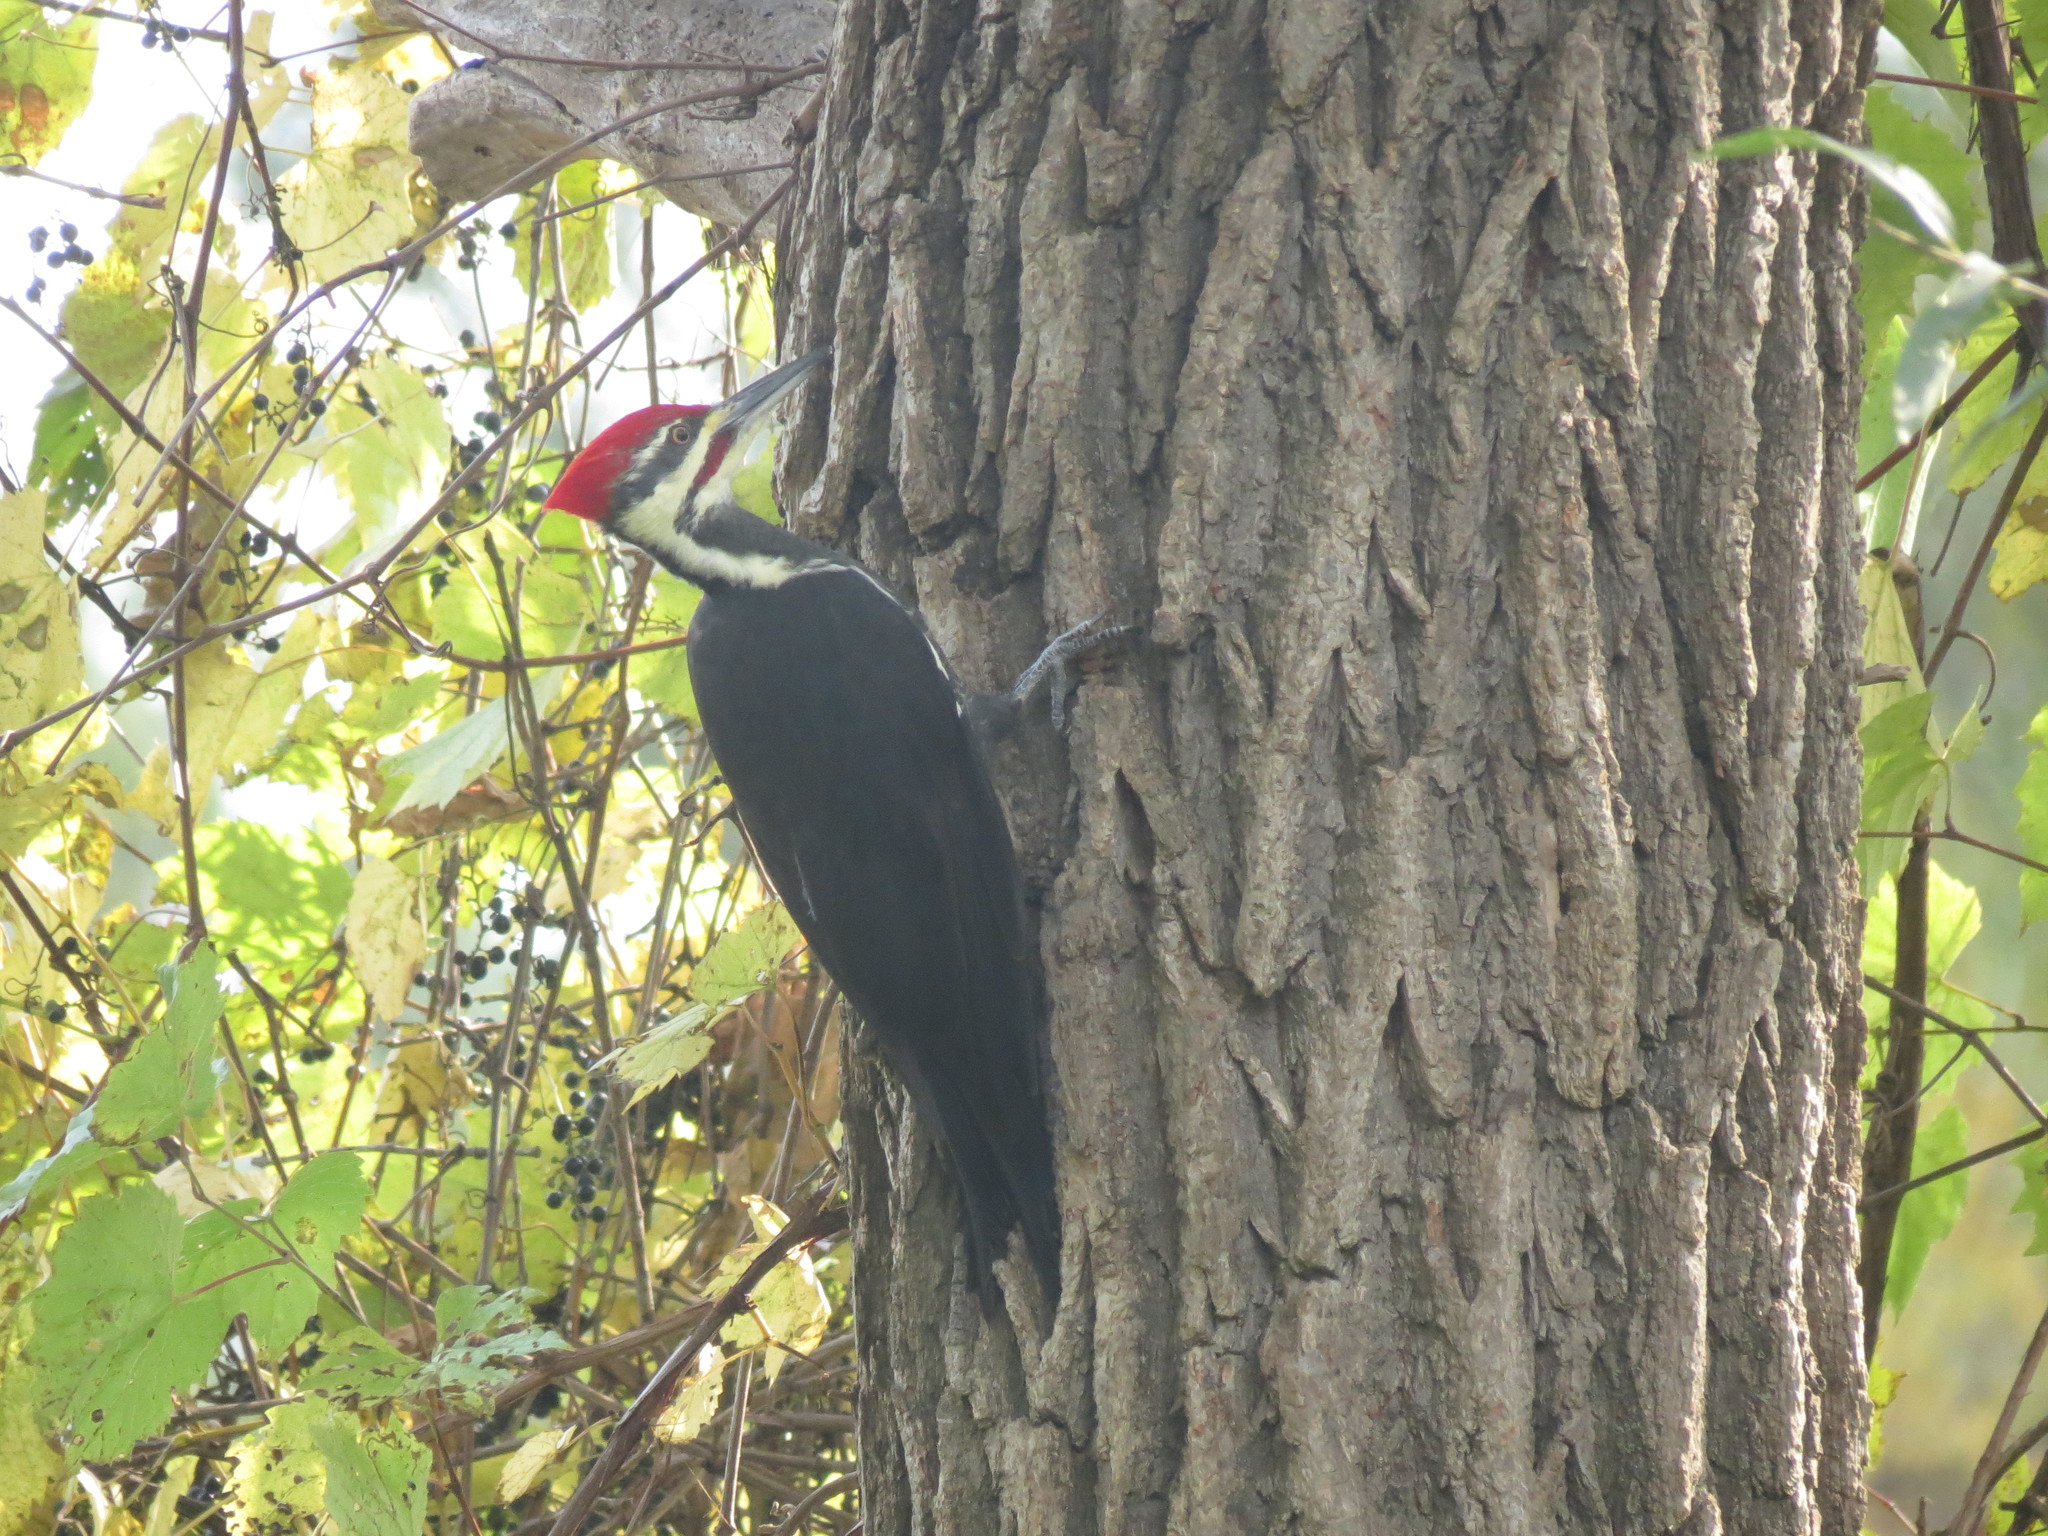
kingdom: Animalia
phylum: Chordata
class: Aves
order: Piciformes
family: Picidae
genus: Dryocopus
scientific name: Dryocopus pileatus
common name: Pileated woodpecker
